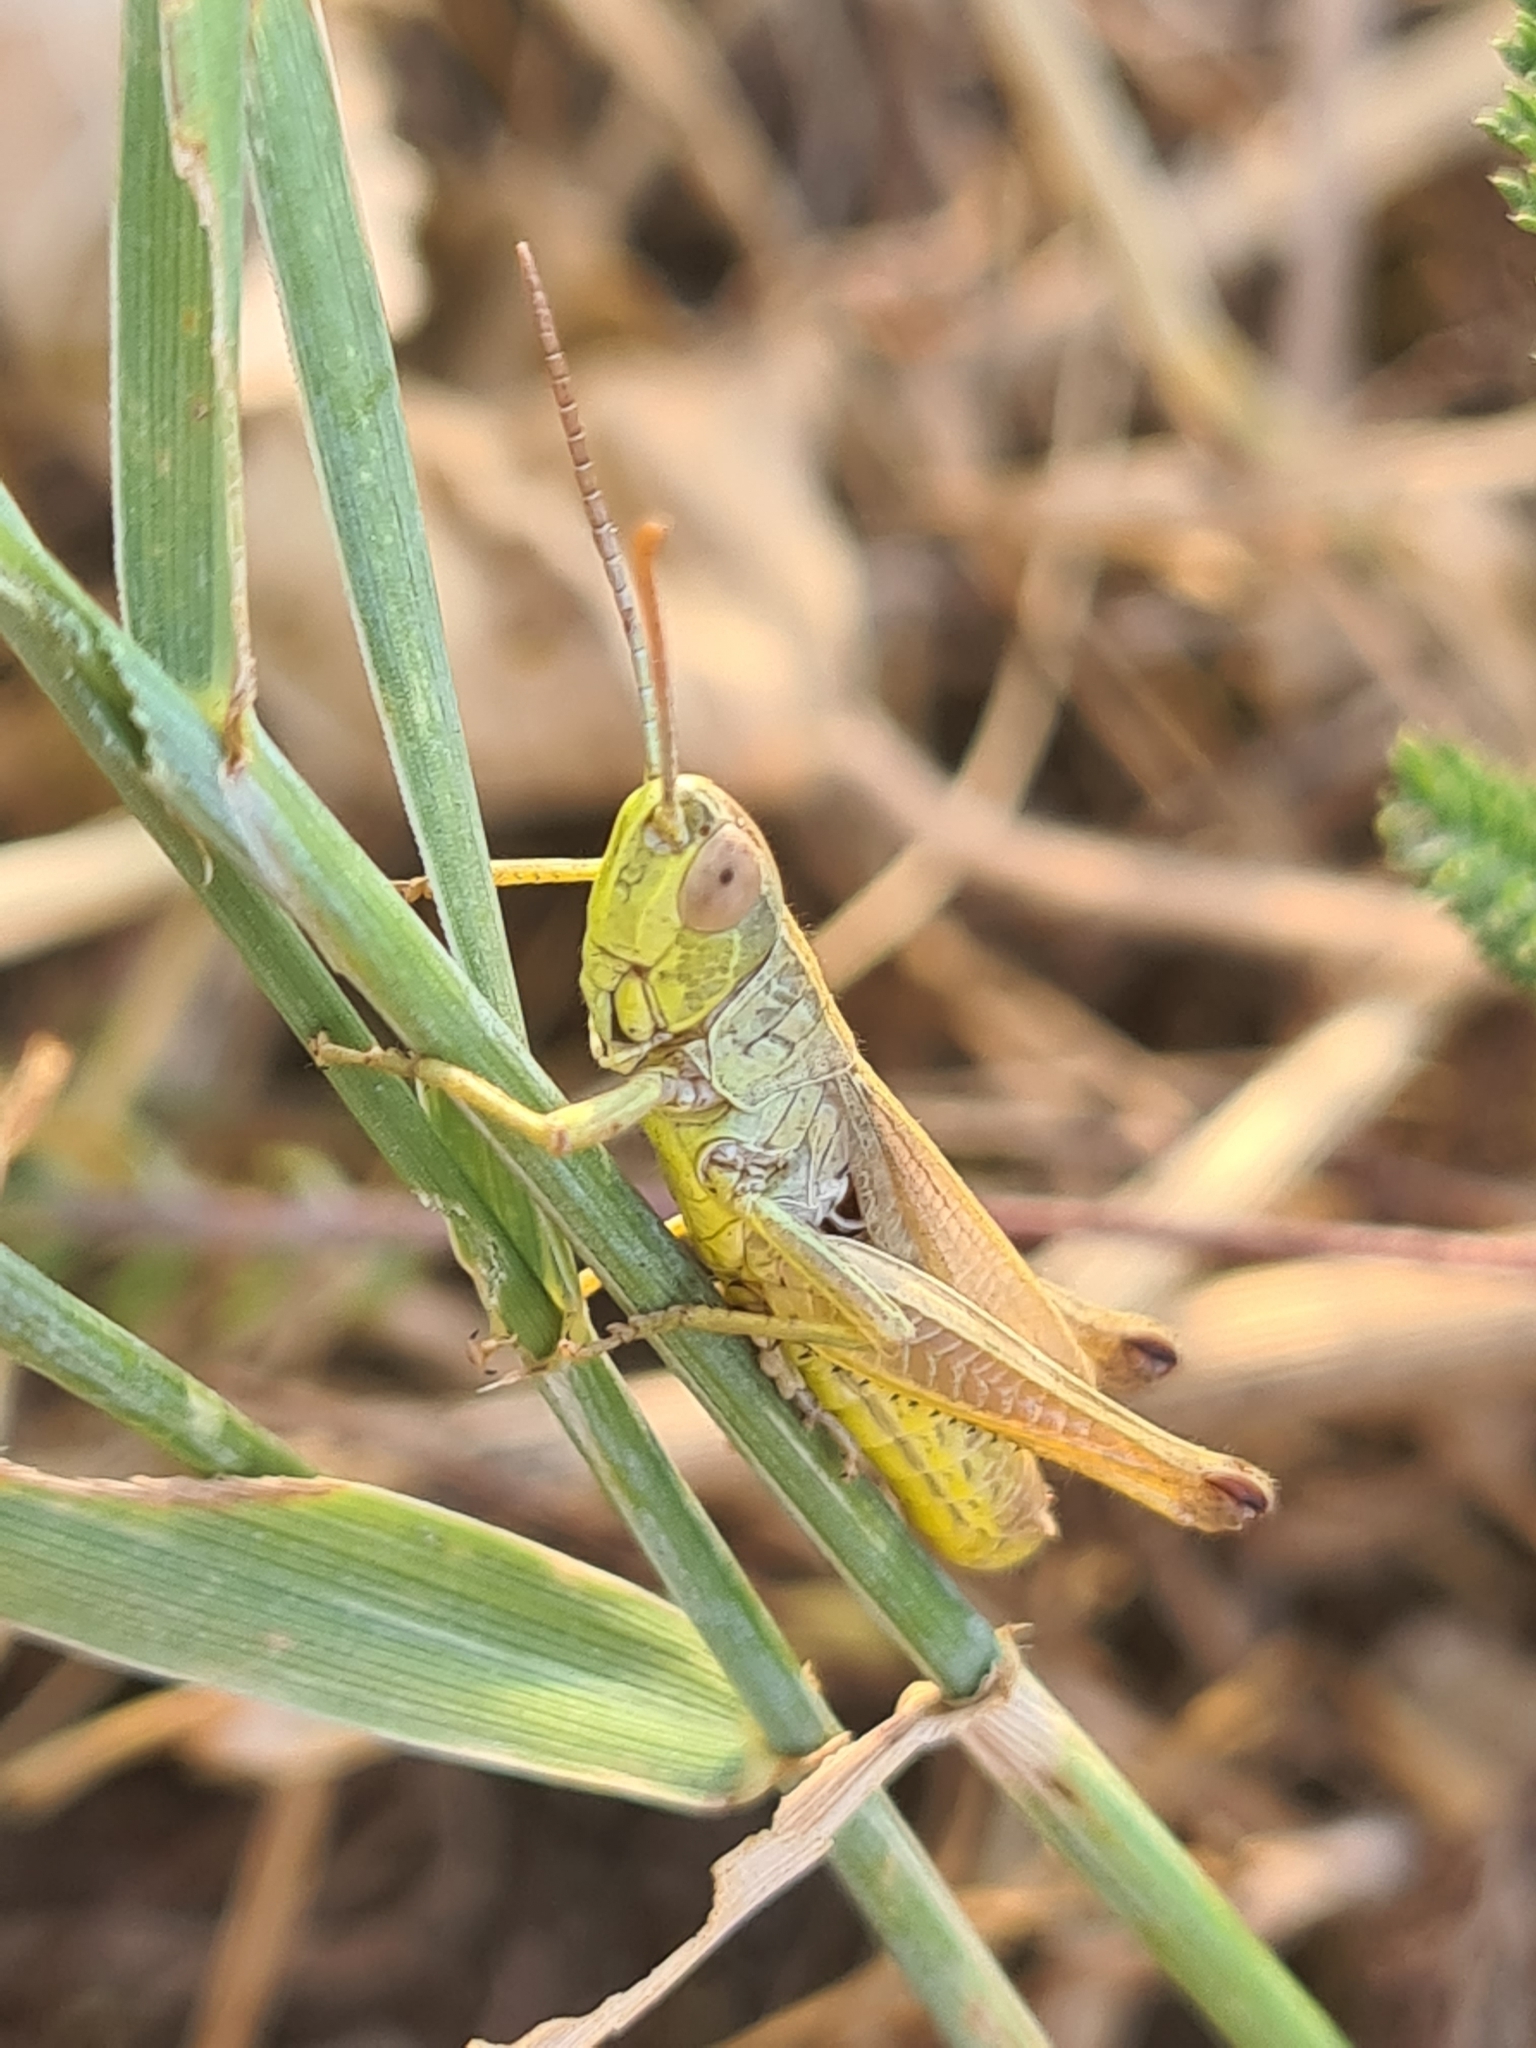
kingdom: Animalia
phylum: Arthropoda
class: Insecta
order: Orthoptera
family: Acrididae
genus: Pseudochorthippus
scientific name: Pseudochorthippus parallelus
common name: Meadow grasshopper
